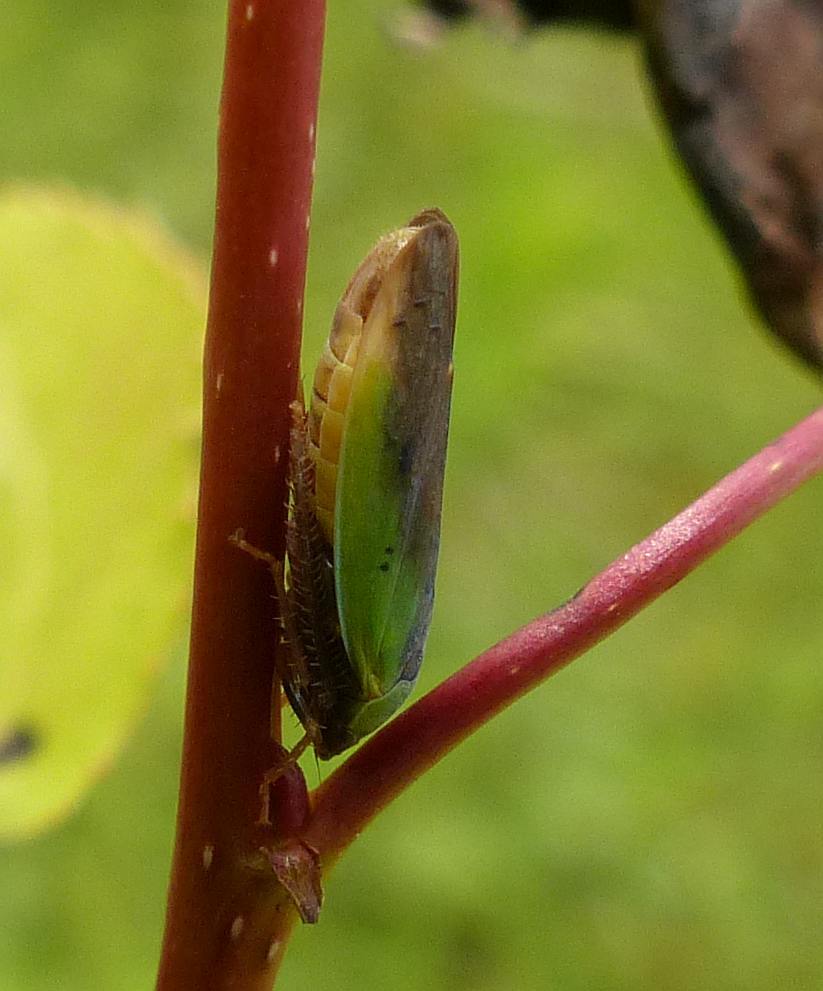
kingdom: Animalia
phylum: Arthropoda
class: Insecta
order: Hemiptera
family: Cicadellidae
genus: Ponana
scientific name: Ponana pectoralis
